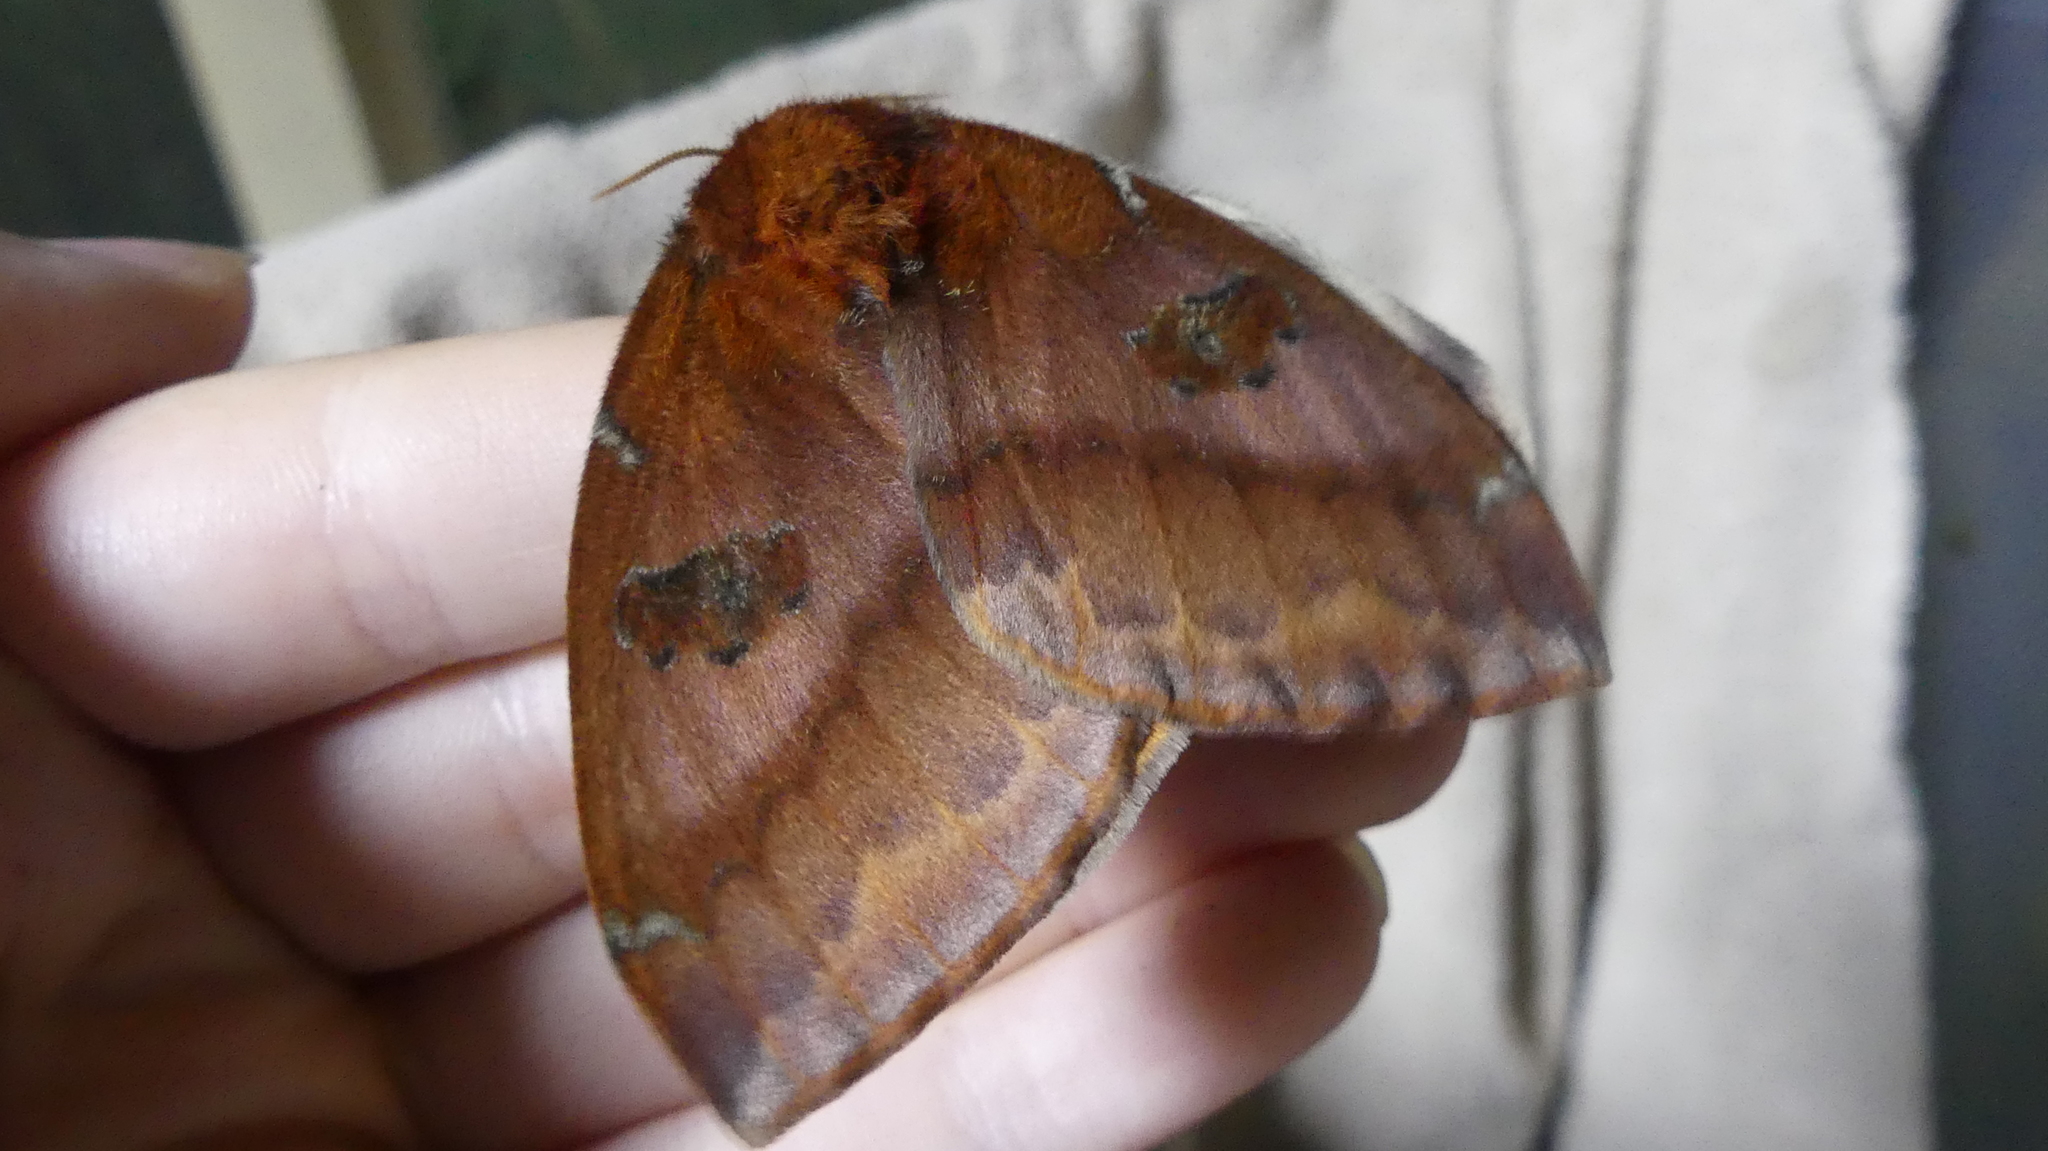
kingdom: Animalia
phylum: Arthropoda
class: Insecta
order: Lepidoptera
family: Saturniidae
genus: Automeris
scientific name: Automeris io
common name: Io moth
